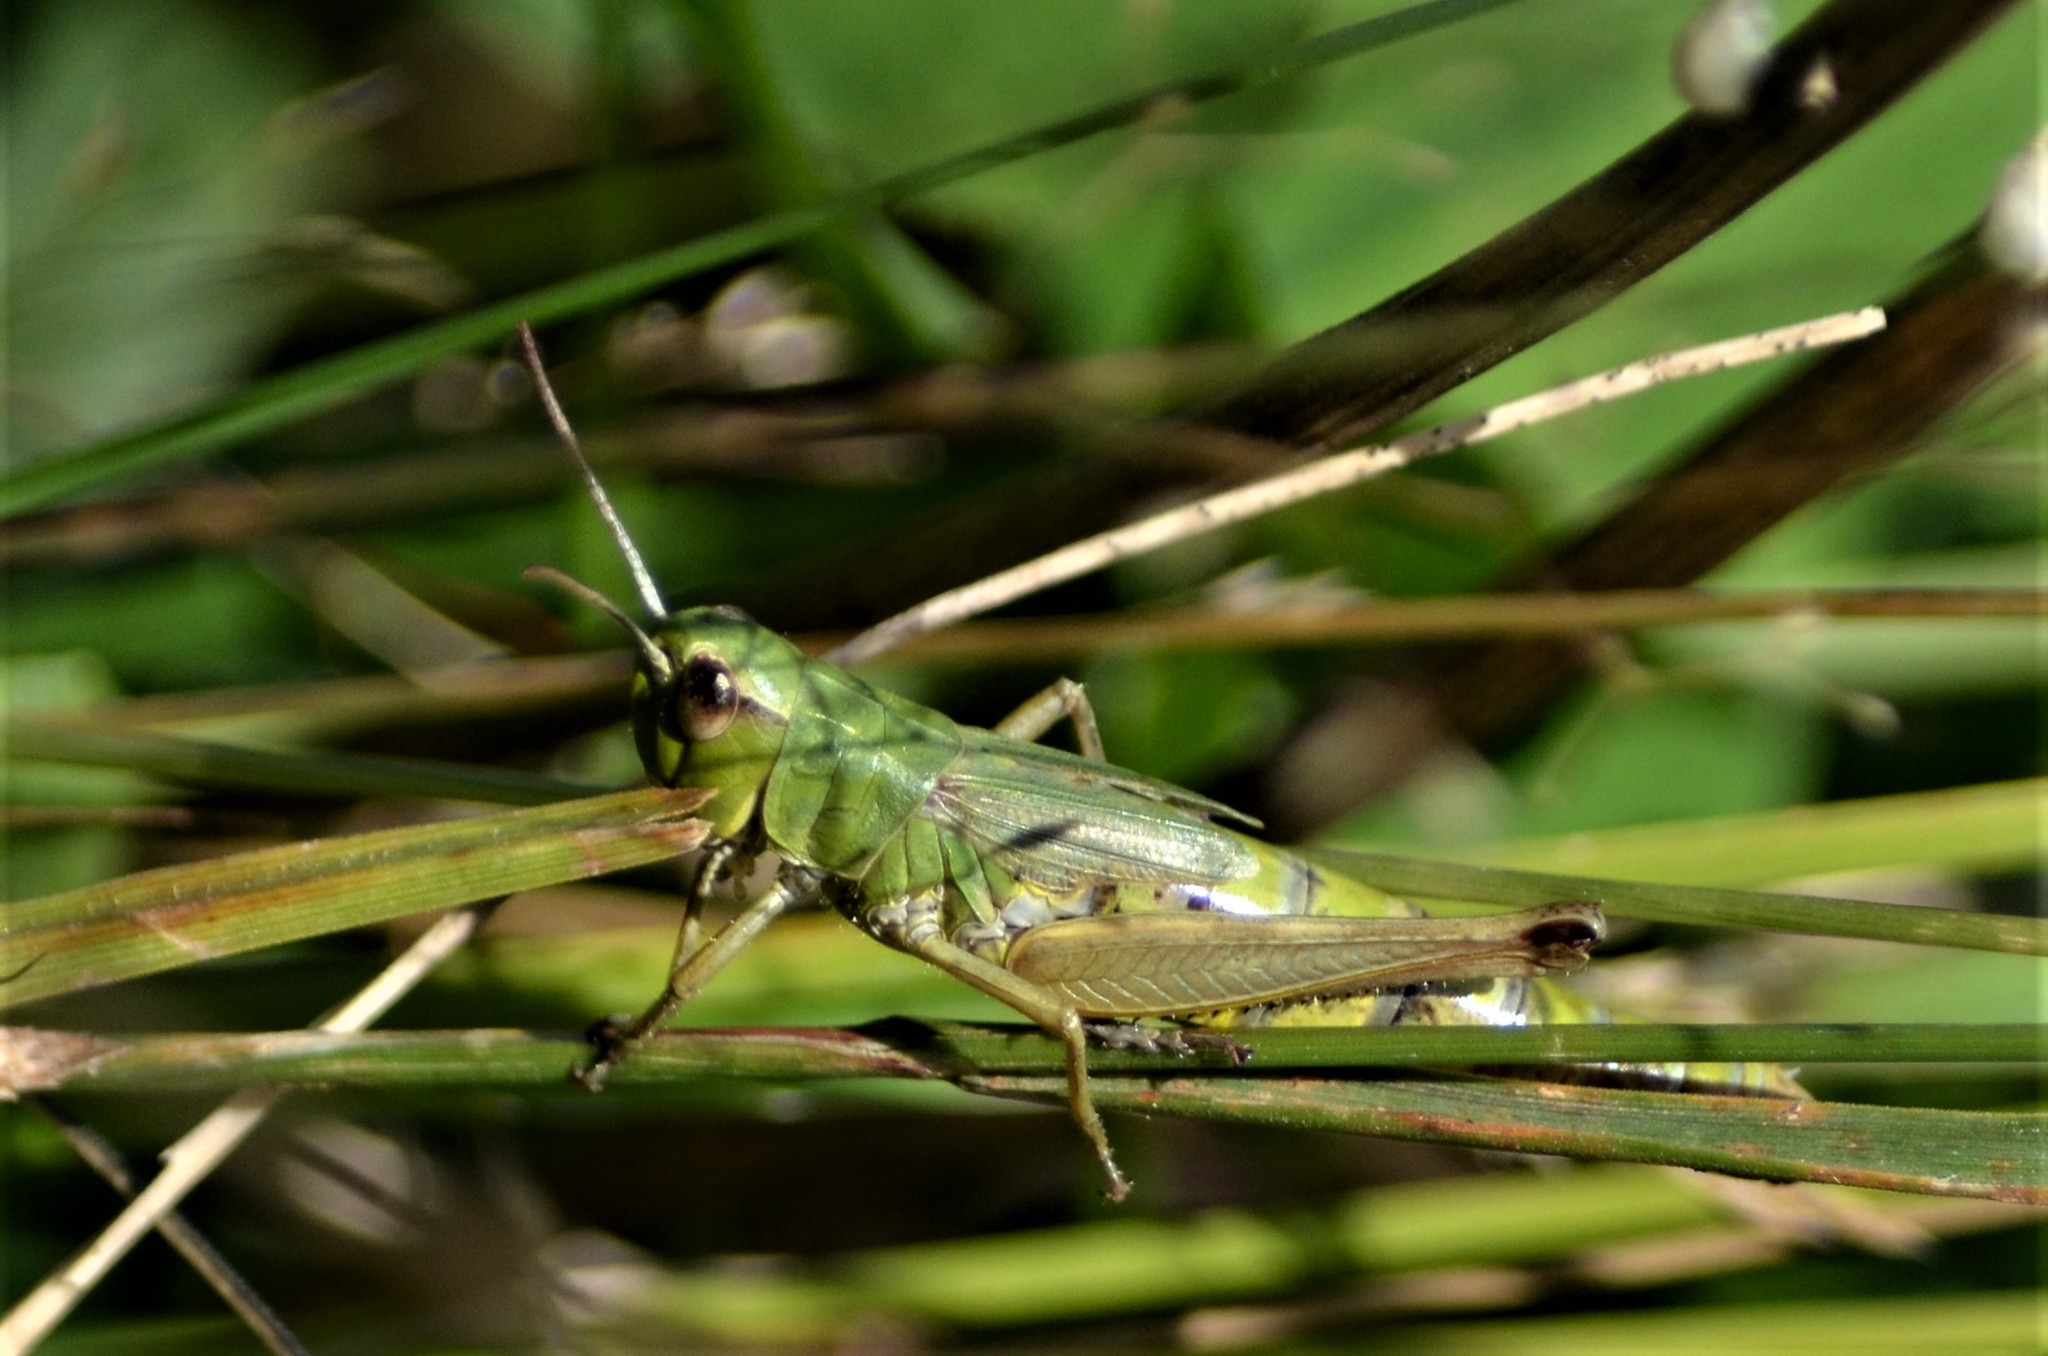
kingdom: Animalia
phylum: Arthropoda
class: Insecta
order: Orthoptera
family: Acrididae
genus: Pseudochorthippus
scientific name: Pseudochorthippus parallelus
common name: Meadow grasshopper
